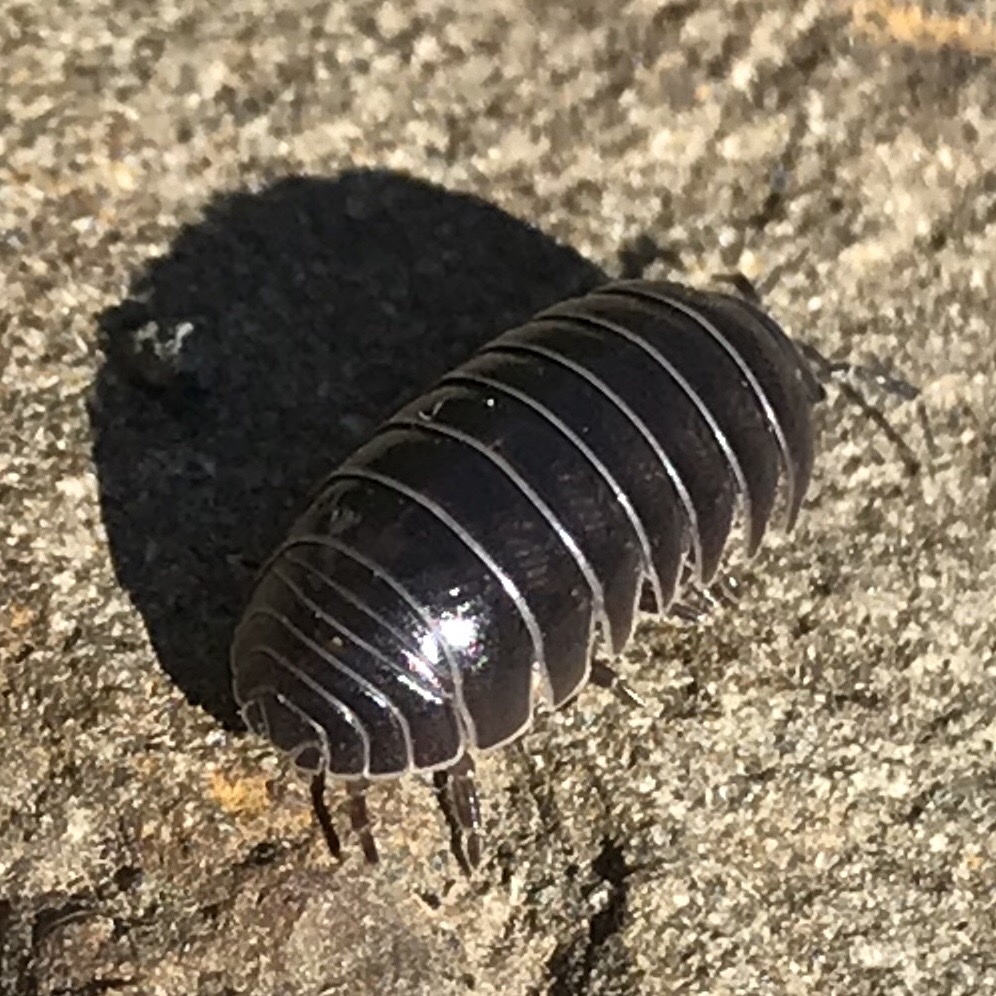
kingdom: Animalia
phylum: Arthropoda
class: Malacostraca
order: Isopoda
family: Armadillidiidae
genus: Armadillidium
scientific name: Armadillidium vulgare
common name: Common pill woodlouse
